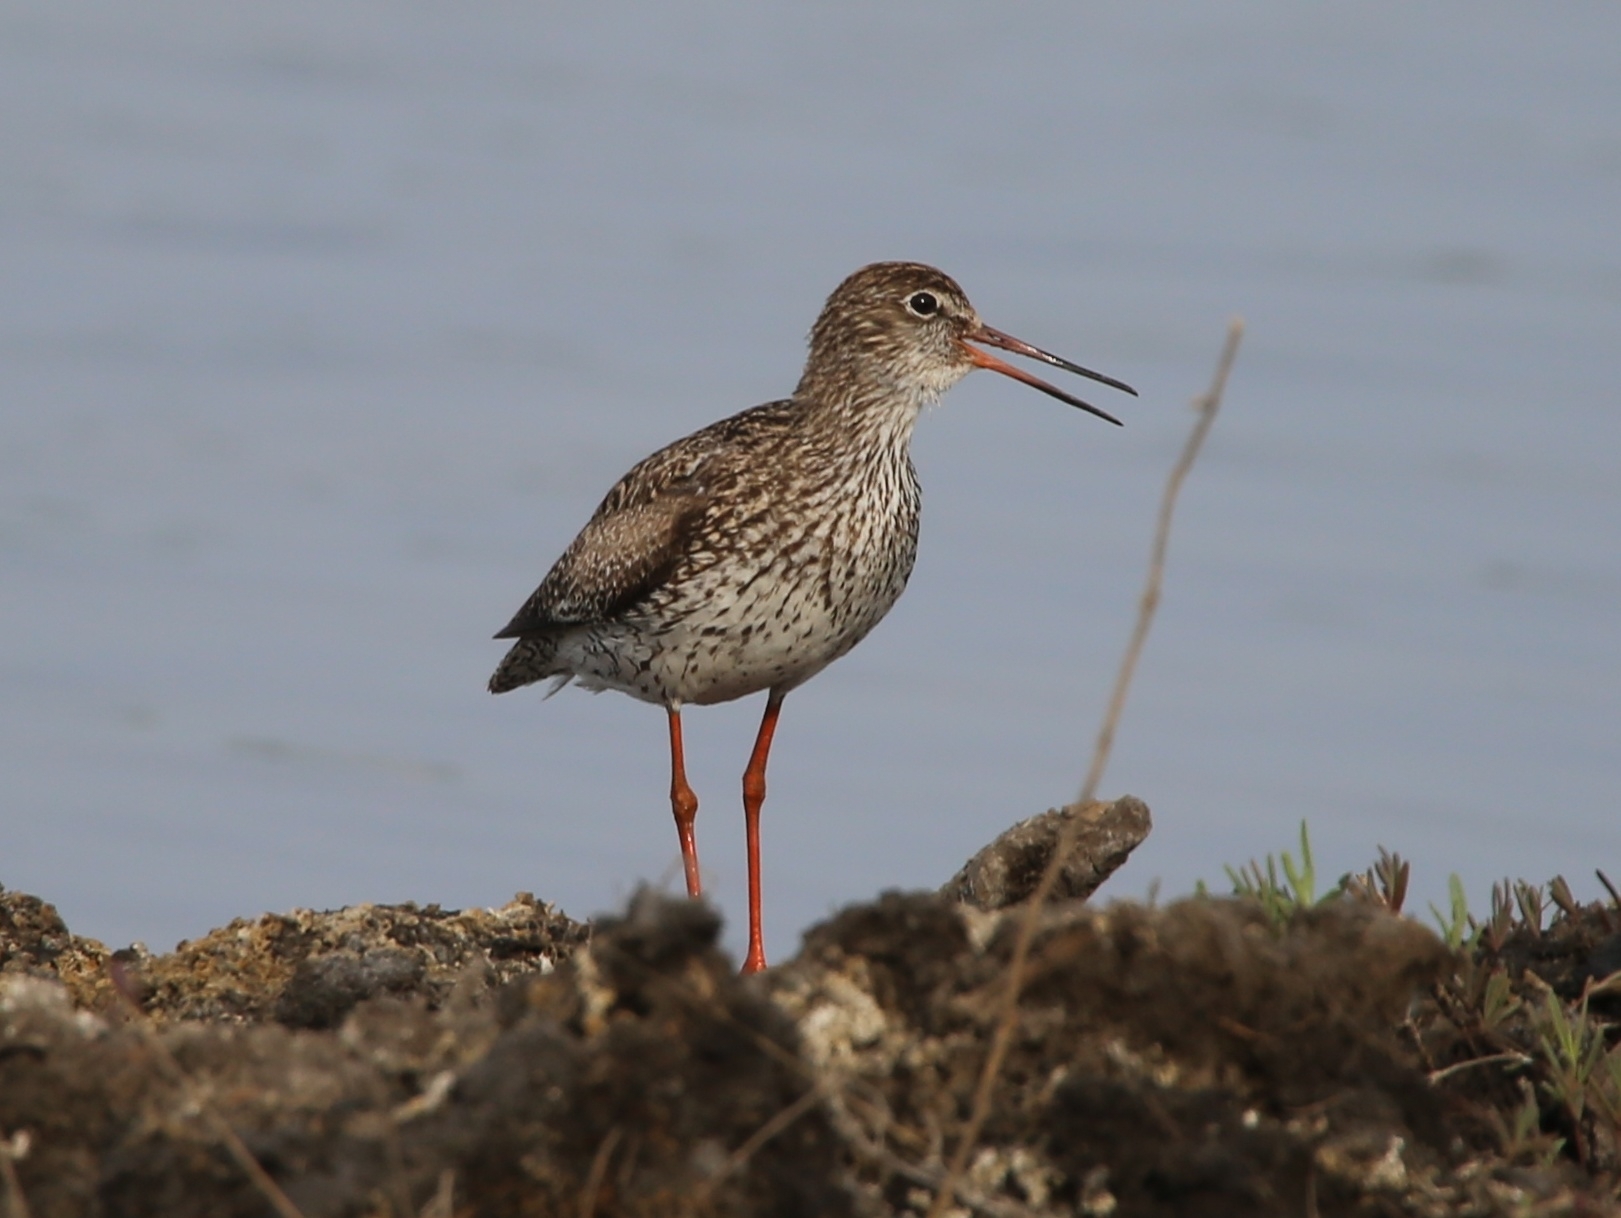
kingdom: Animalia
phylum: Chordata
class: Aves
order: Charadriiformes
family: Scolopacidae
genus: Tringa
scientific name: Tringa totanus
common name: Common redshank
